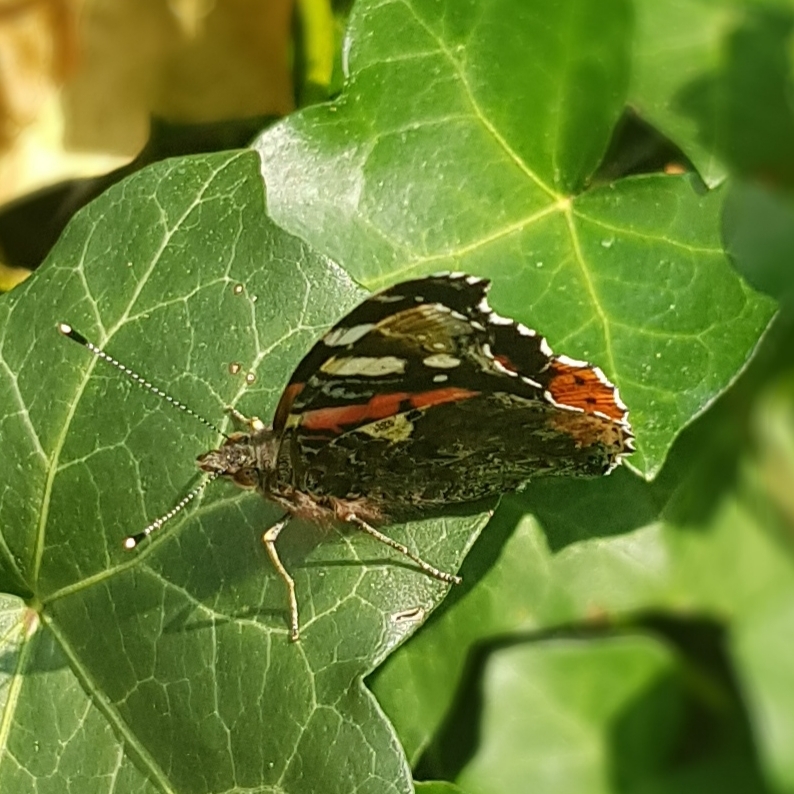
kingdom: Animalia
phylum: Arthropoda
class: Insecta
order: Lepidoptera
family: Nymphalidae
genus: Vanessa
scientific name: Vanessa atalanta
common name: Red admiral
